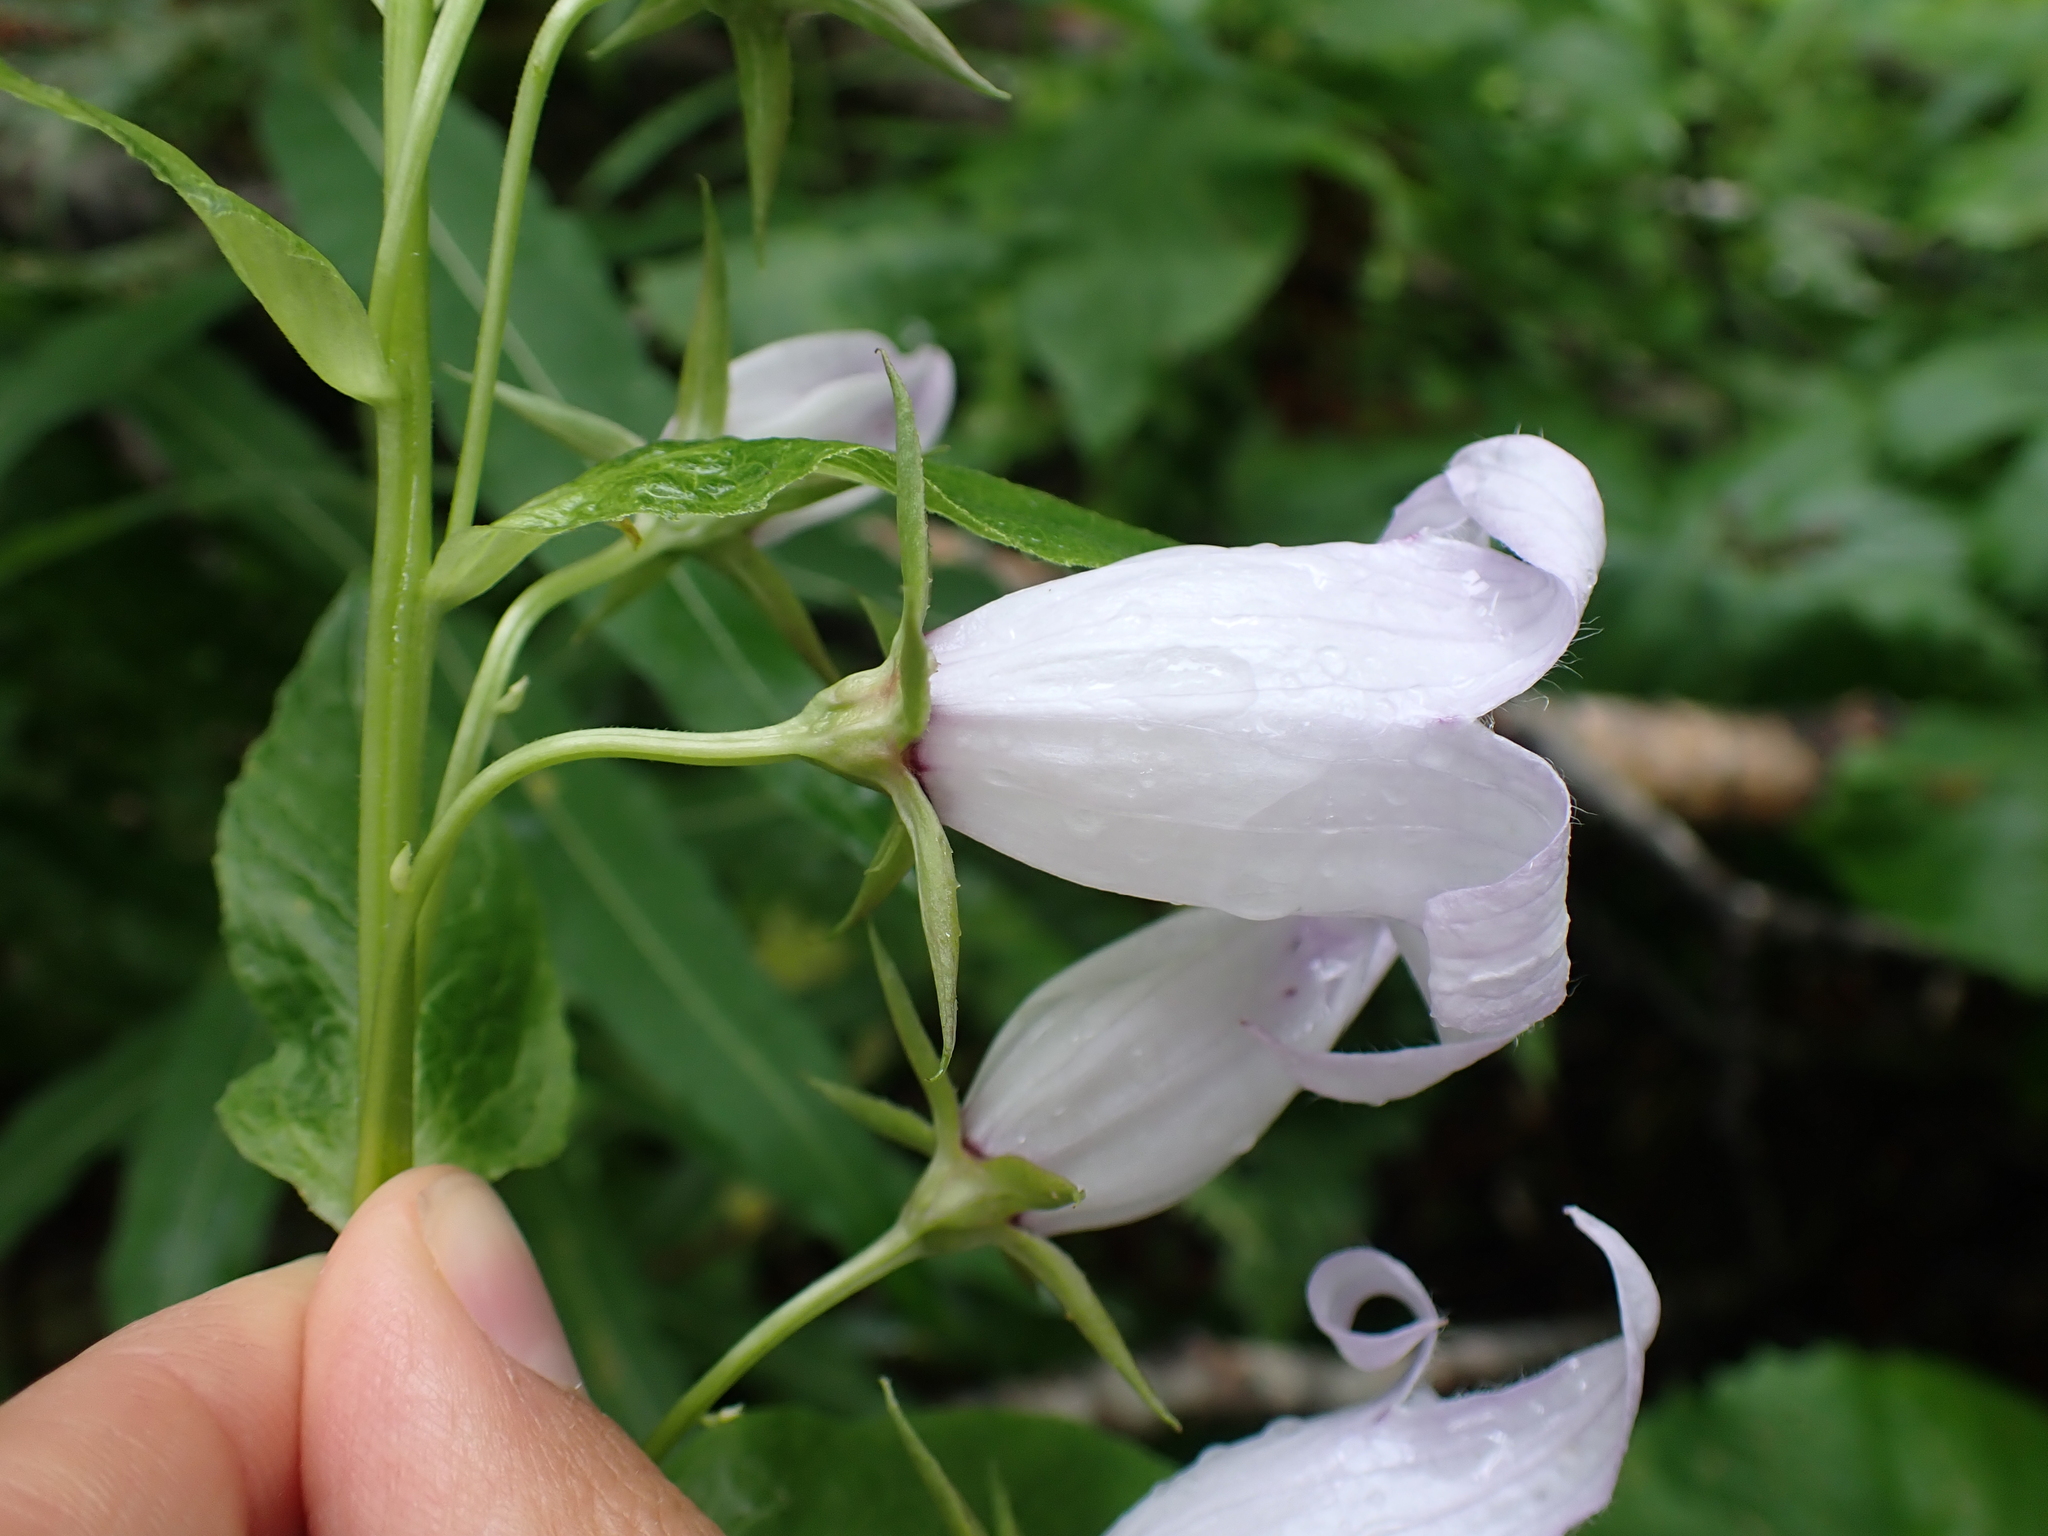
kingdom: Plantae
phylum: Tracheophyta
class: Magnoliopsida
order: Asterales
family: Campanulaceae
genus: Campanula
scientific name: Campanula latifolia
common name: Giant bellflower
